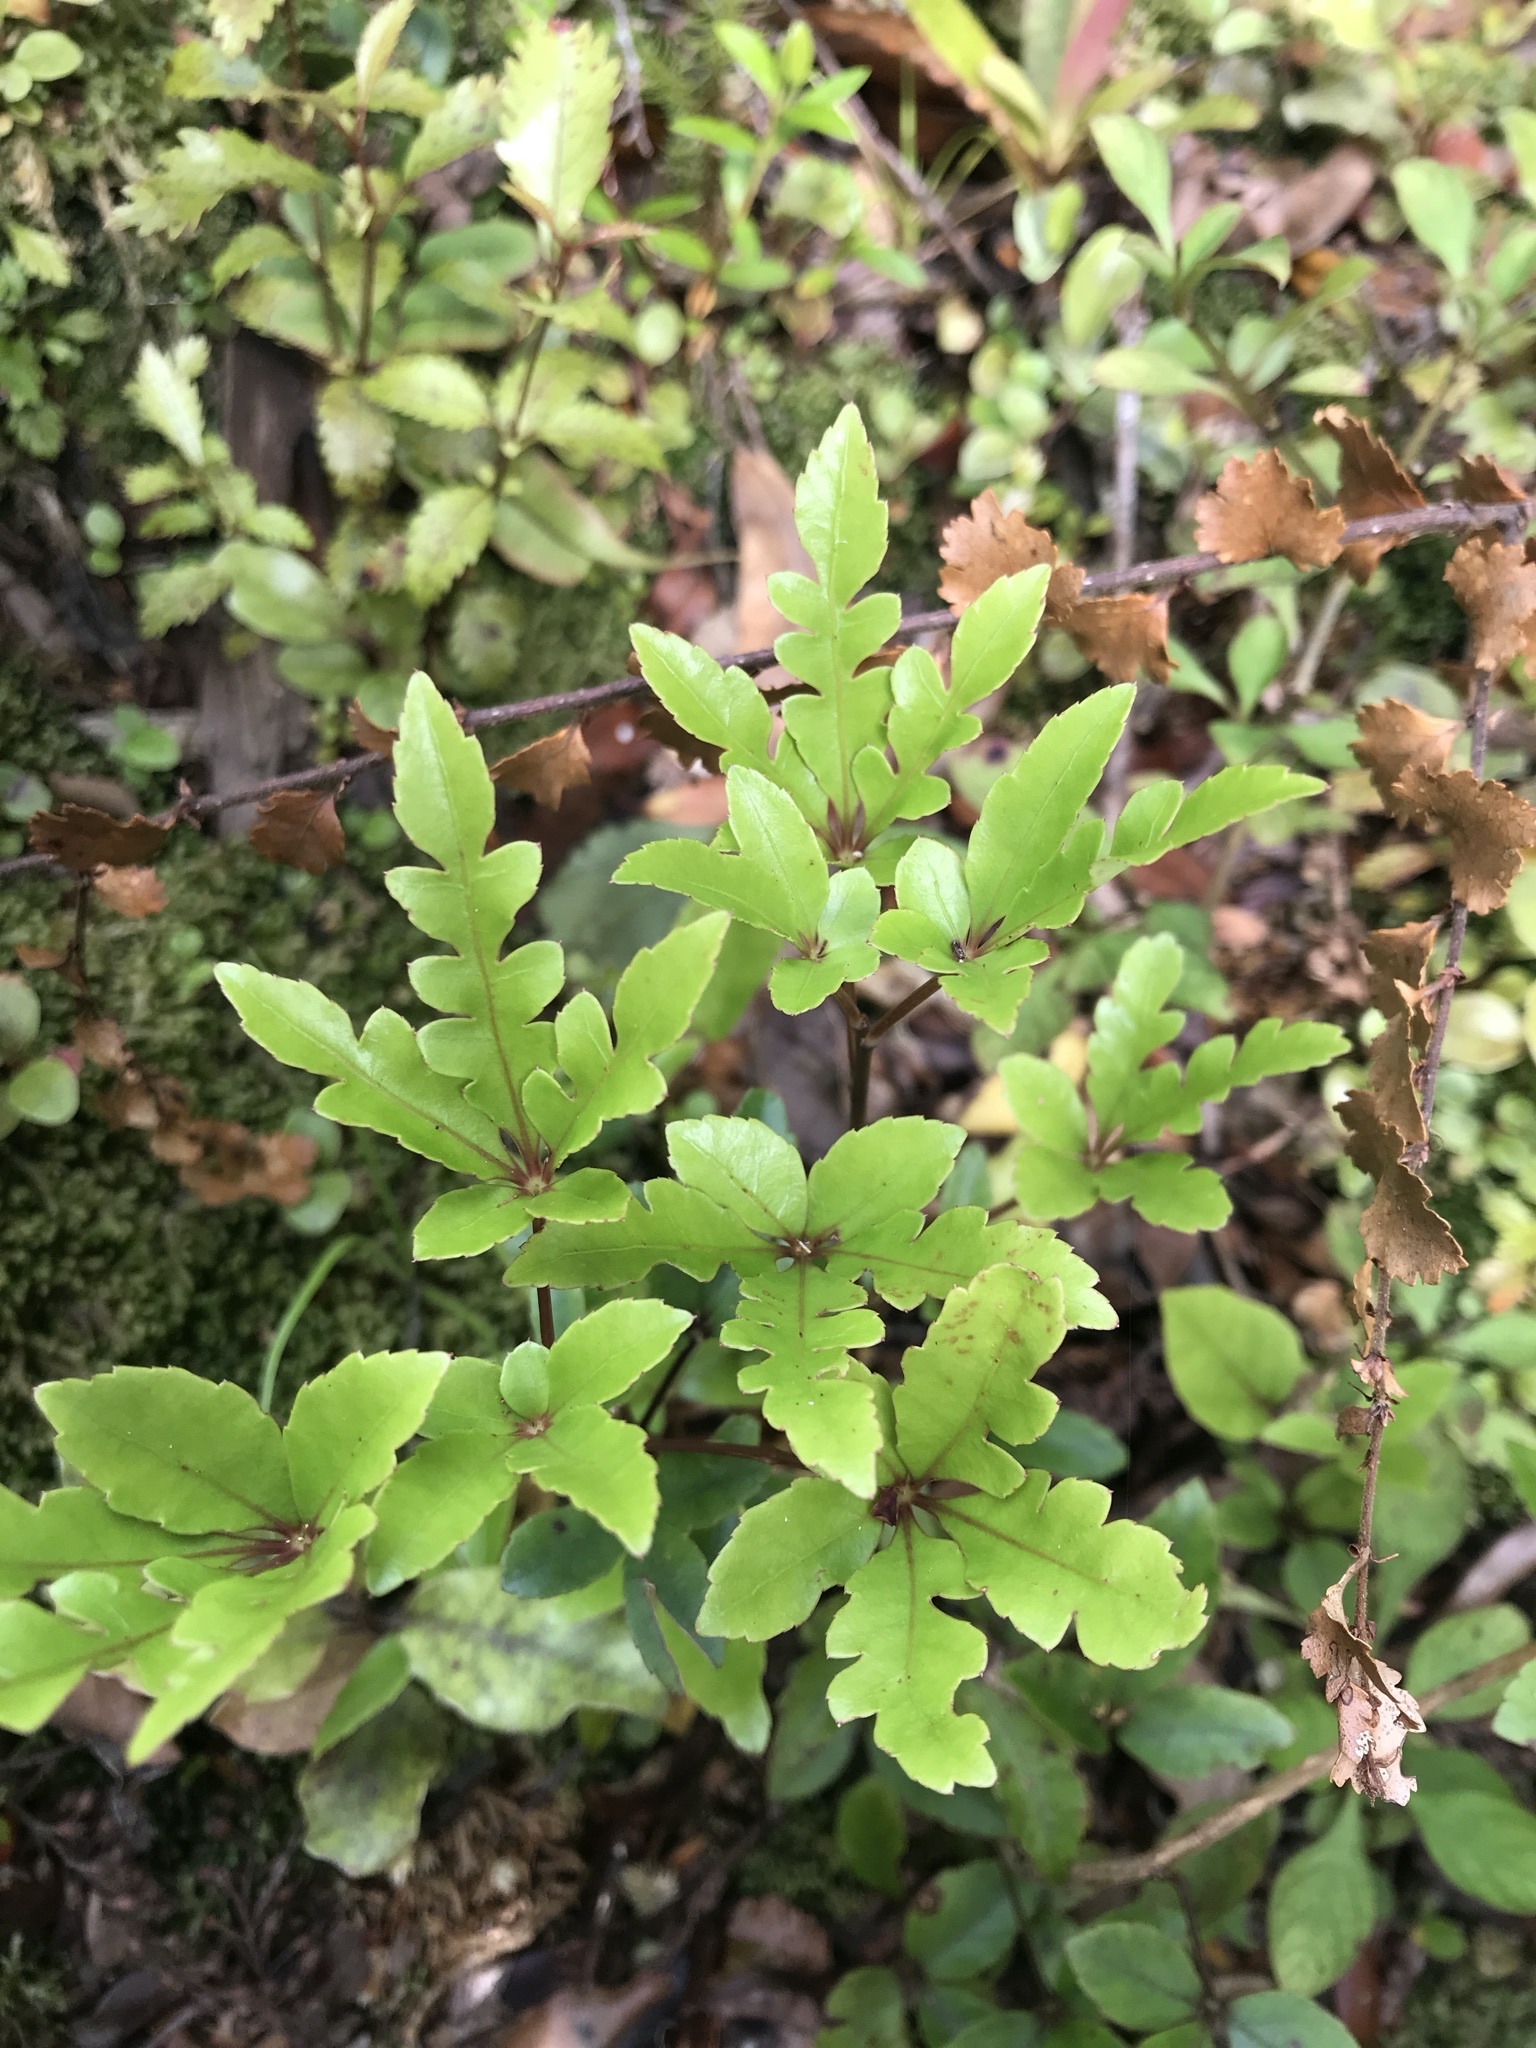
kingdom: Plantae
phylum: Tracheophyta
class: Magnoliopsida
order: Apiales
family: Araliaceae
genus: Raukaua
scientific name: Raukaua simplex
